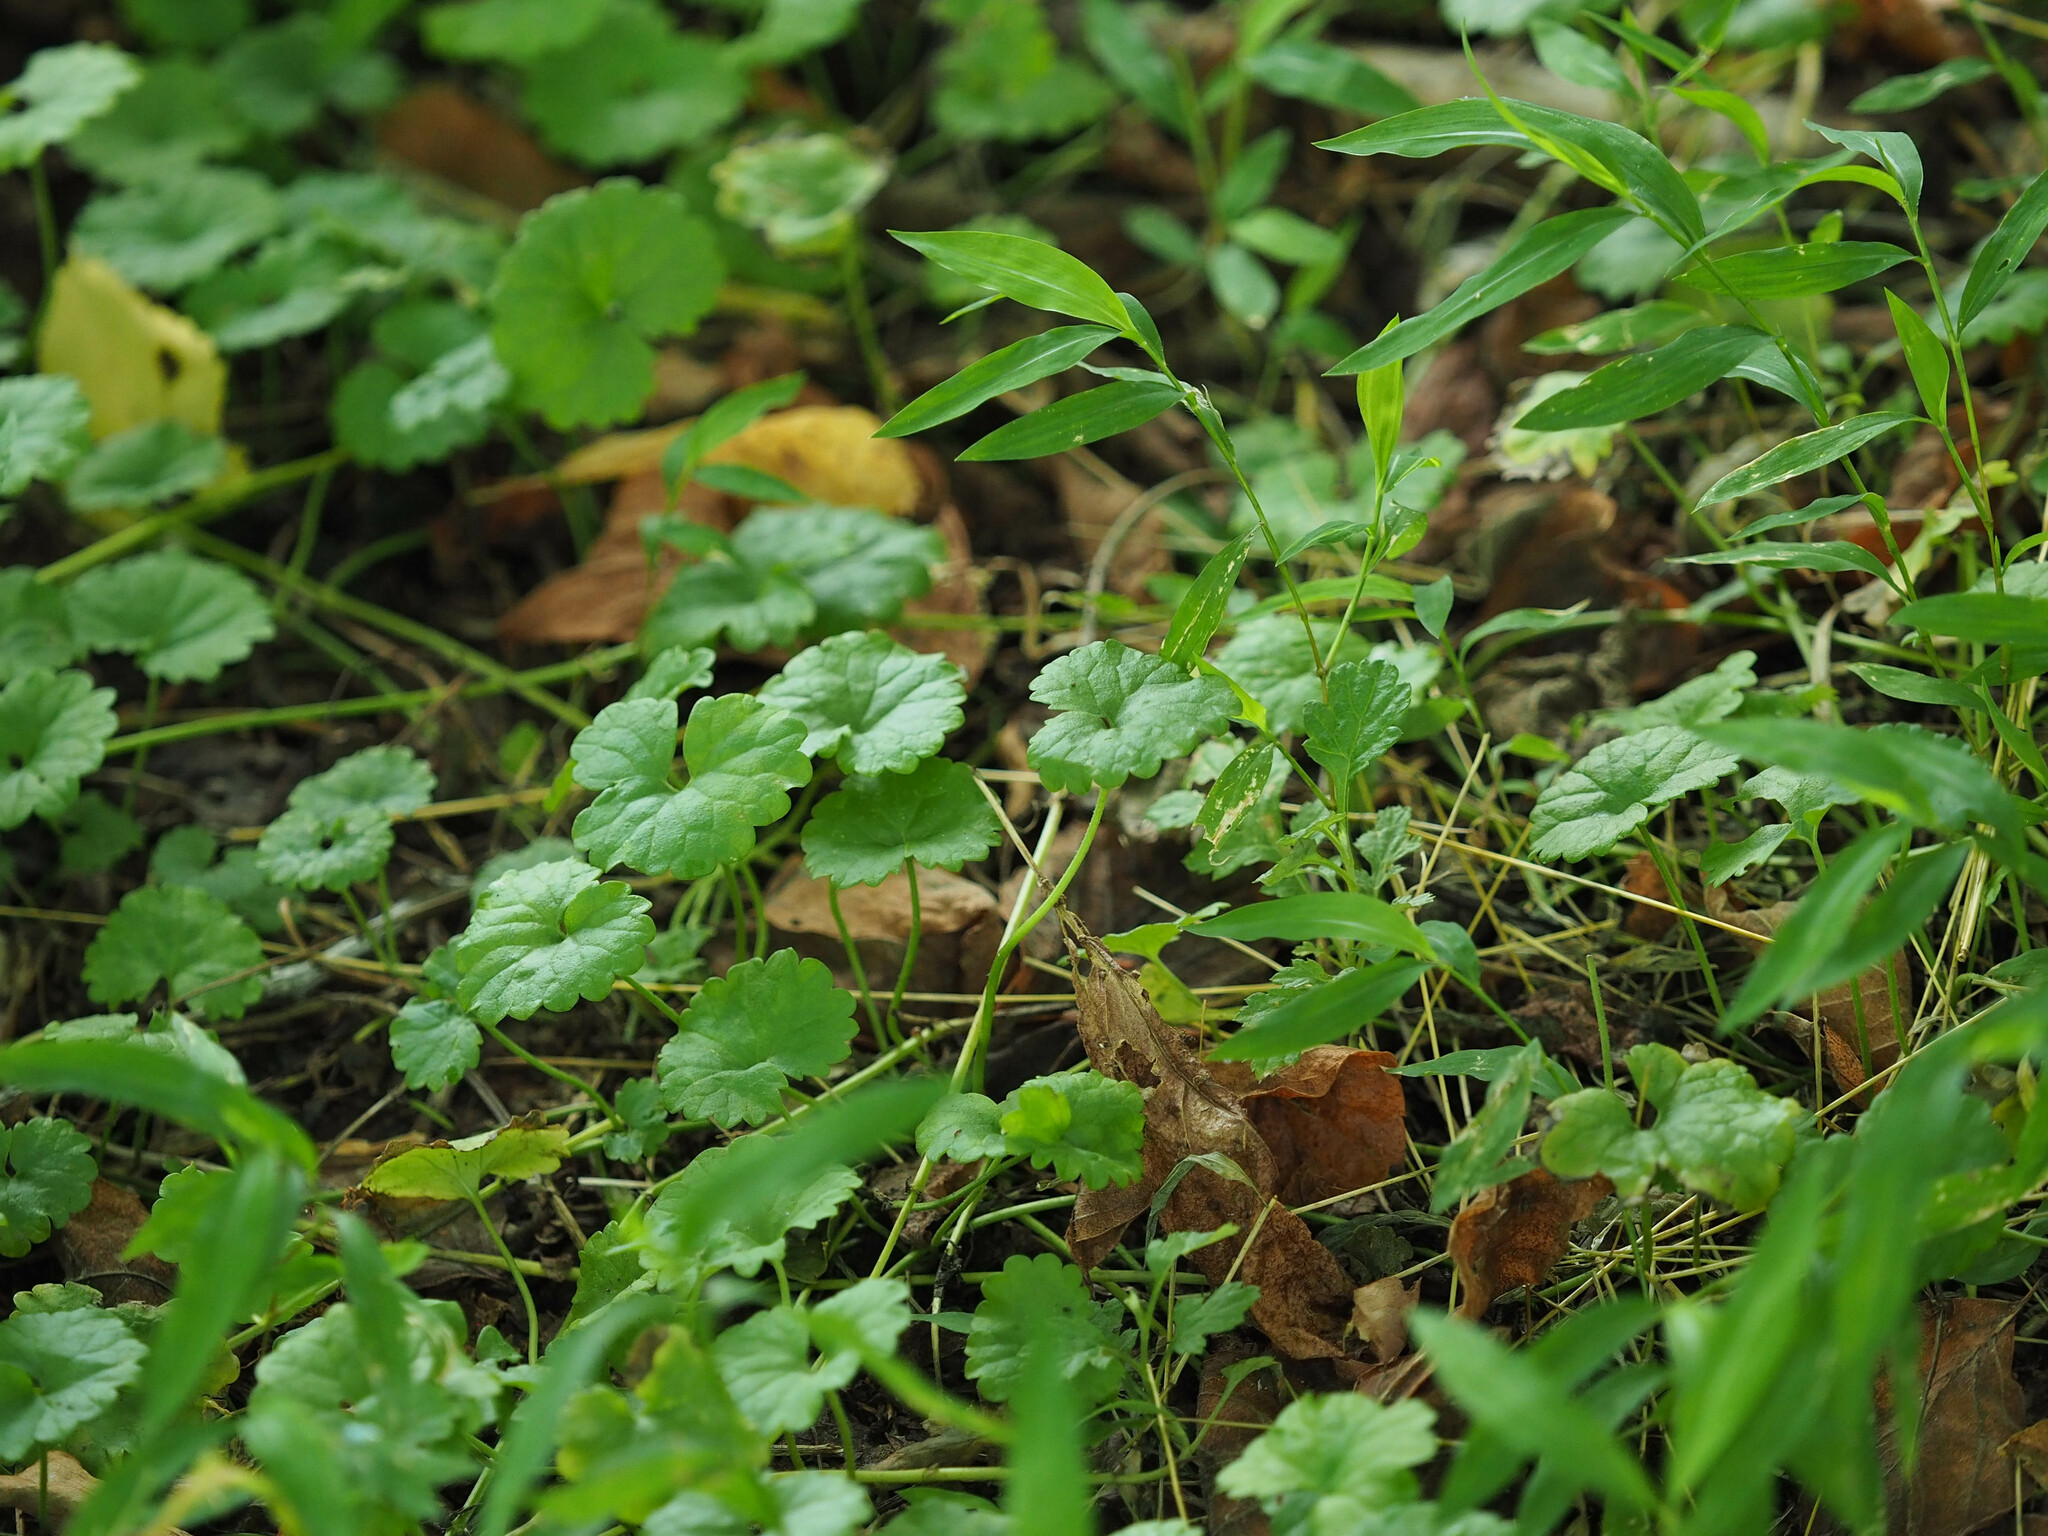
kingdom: Plantae
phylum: Tracheophyta
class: Magnoliopsida
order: Lamiales
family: Lamiaceae
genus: Glechoma
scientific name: Glechoma hederacea
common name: Ground ivy
